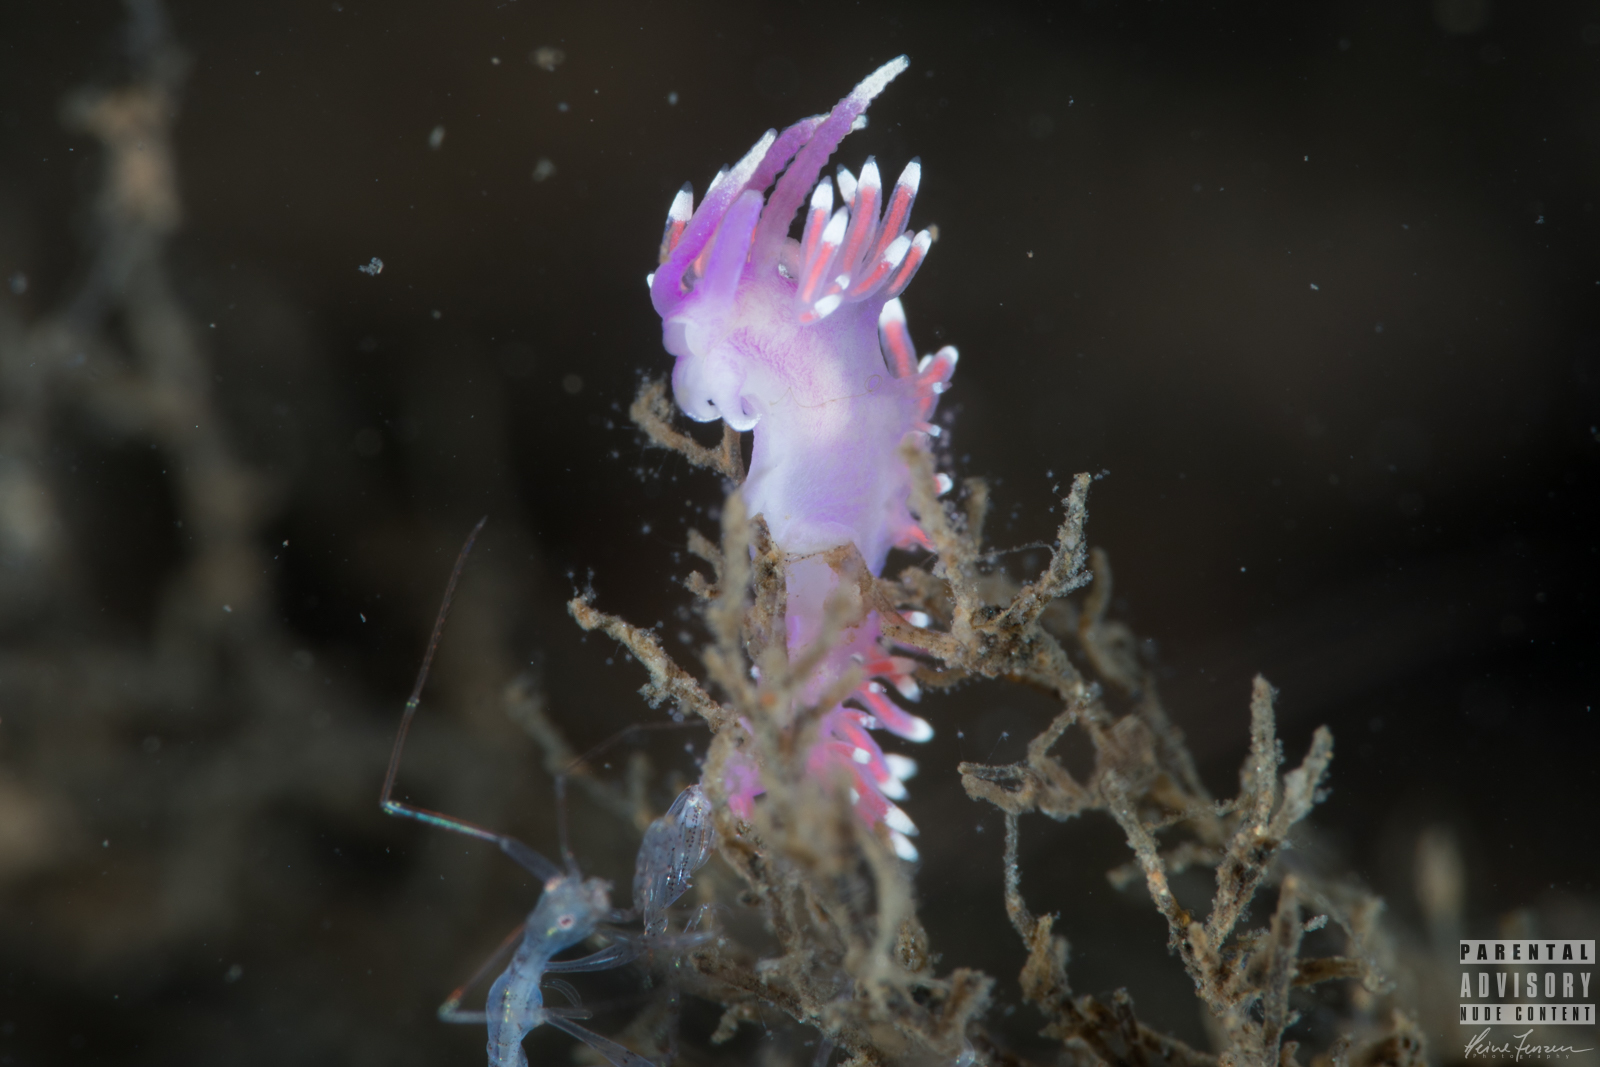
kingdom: Animalia
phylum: Mollusca
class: Gastropoda
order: Nudibranchia
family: Flabellinidae
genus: Edmundsella
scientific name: Edmundsella pedata
